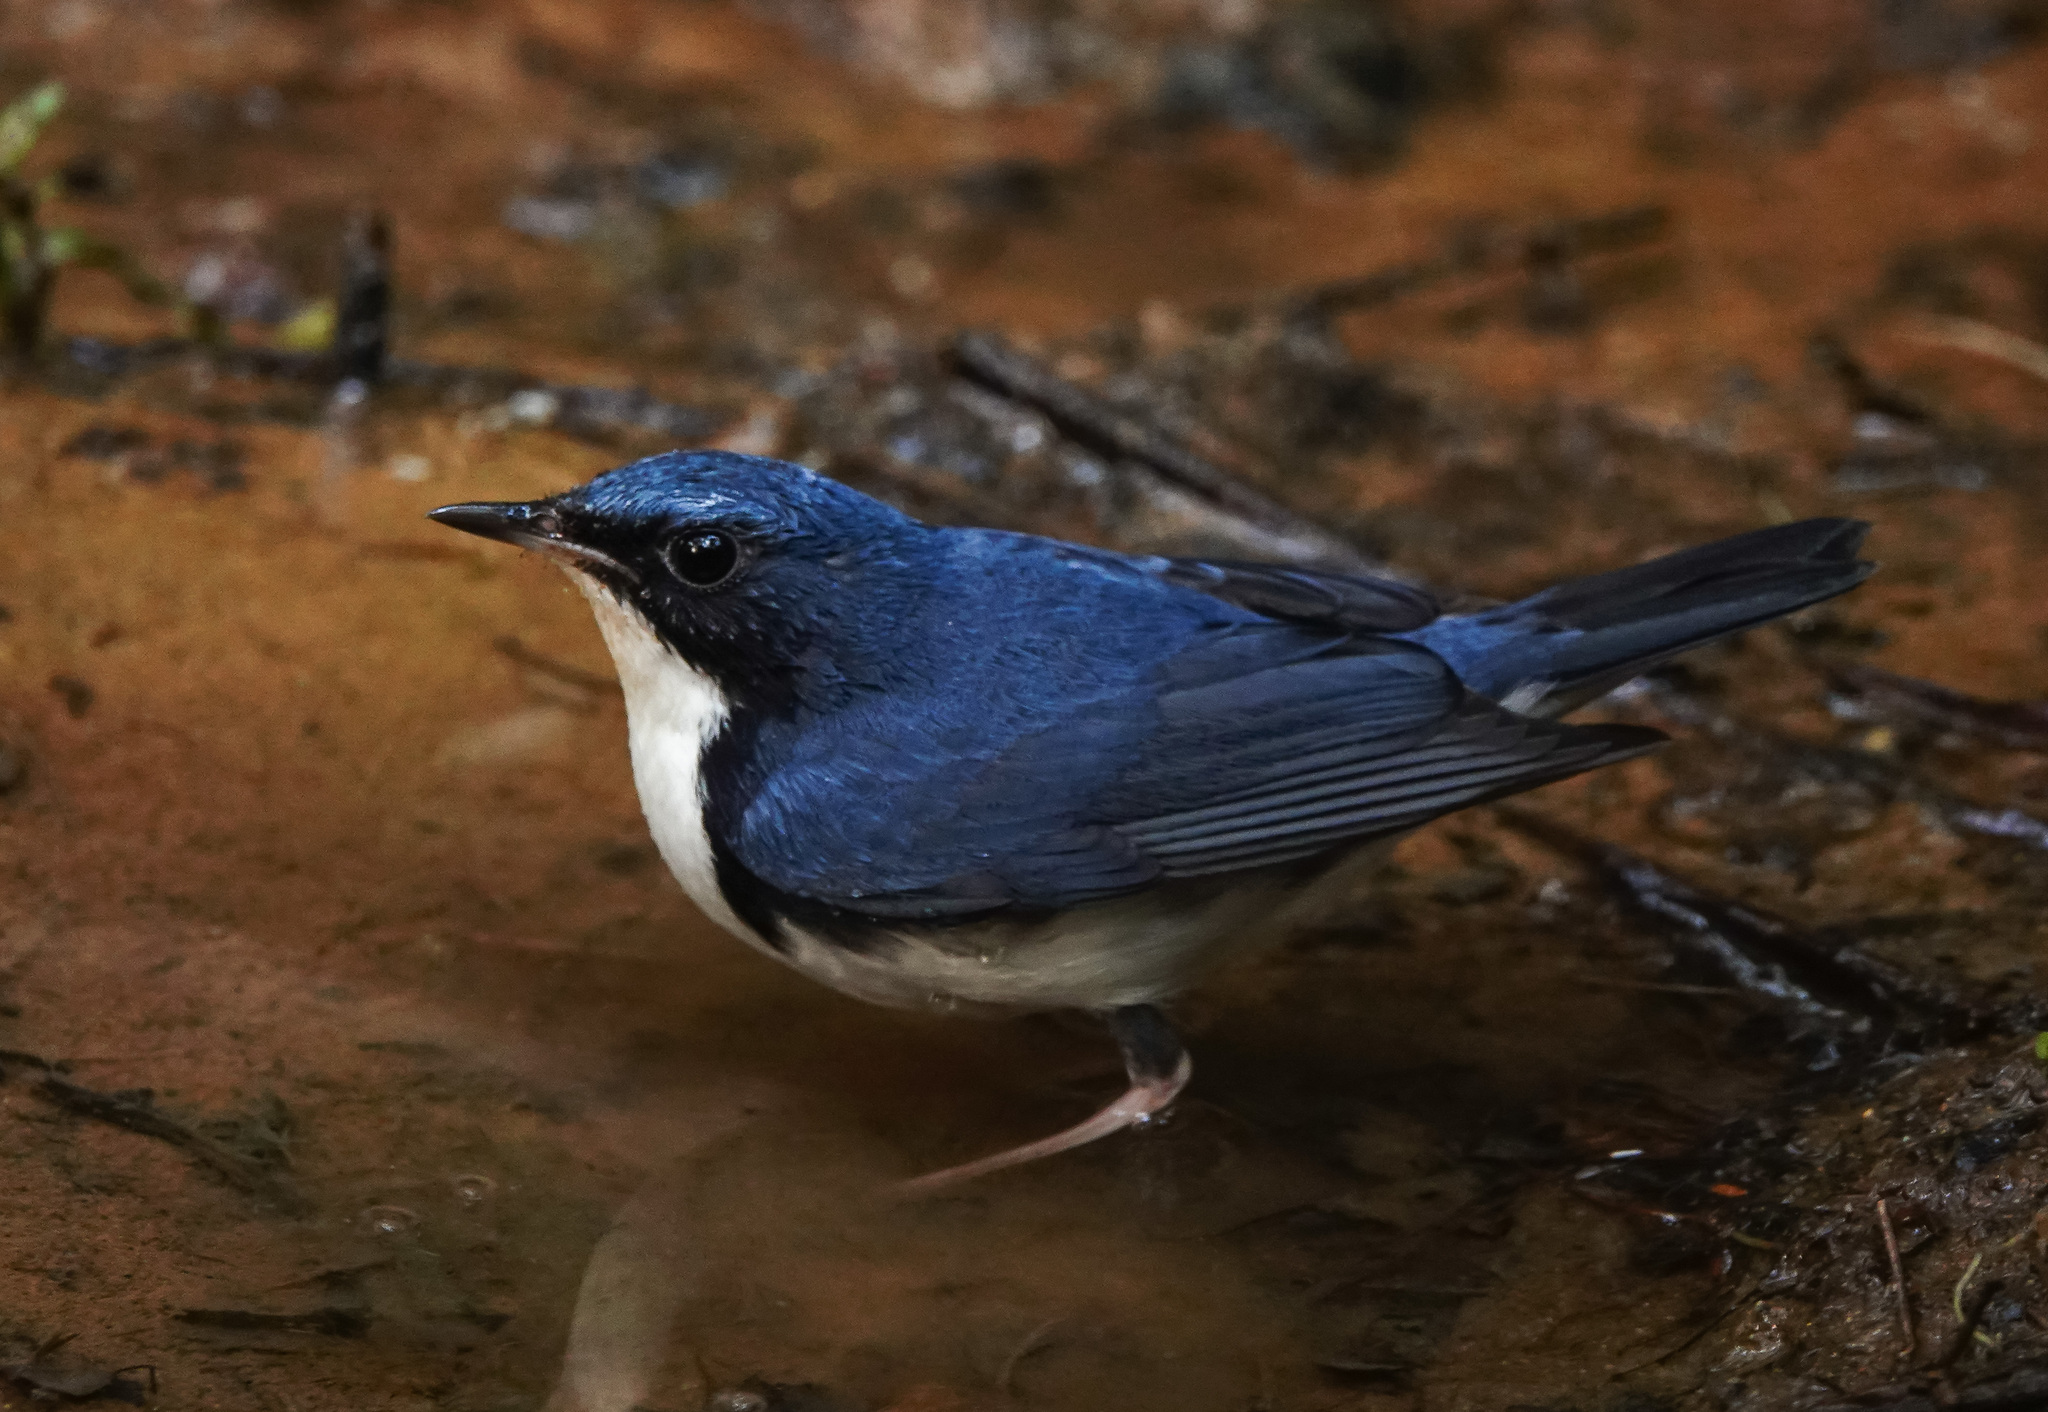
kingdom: Animalia
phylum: Chordata
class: Aves
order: Passeriformes
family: Muscicapidae
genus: Luscinia
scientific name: Luscinia cyane
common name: Siberian blue robin
